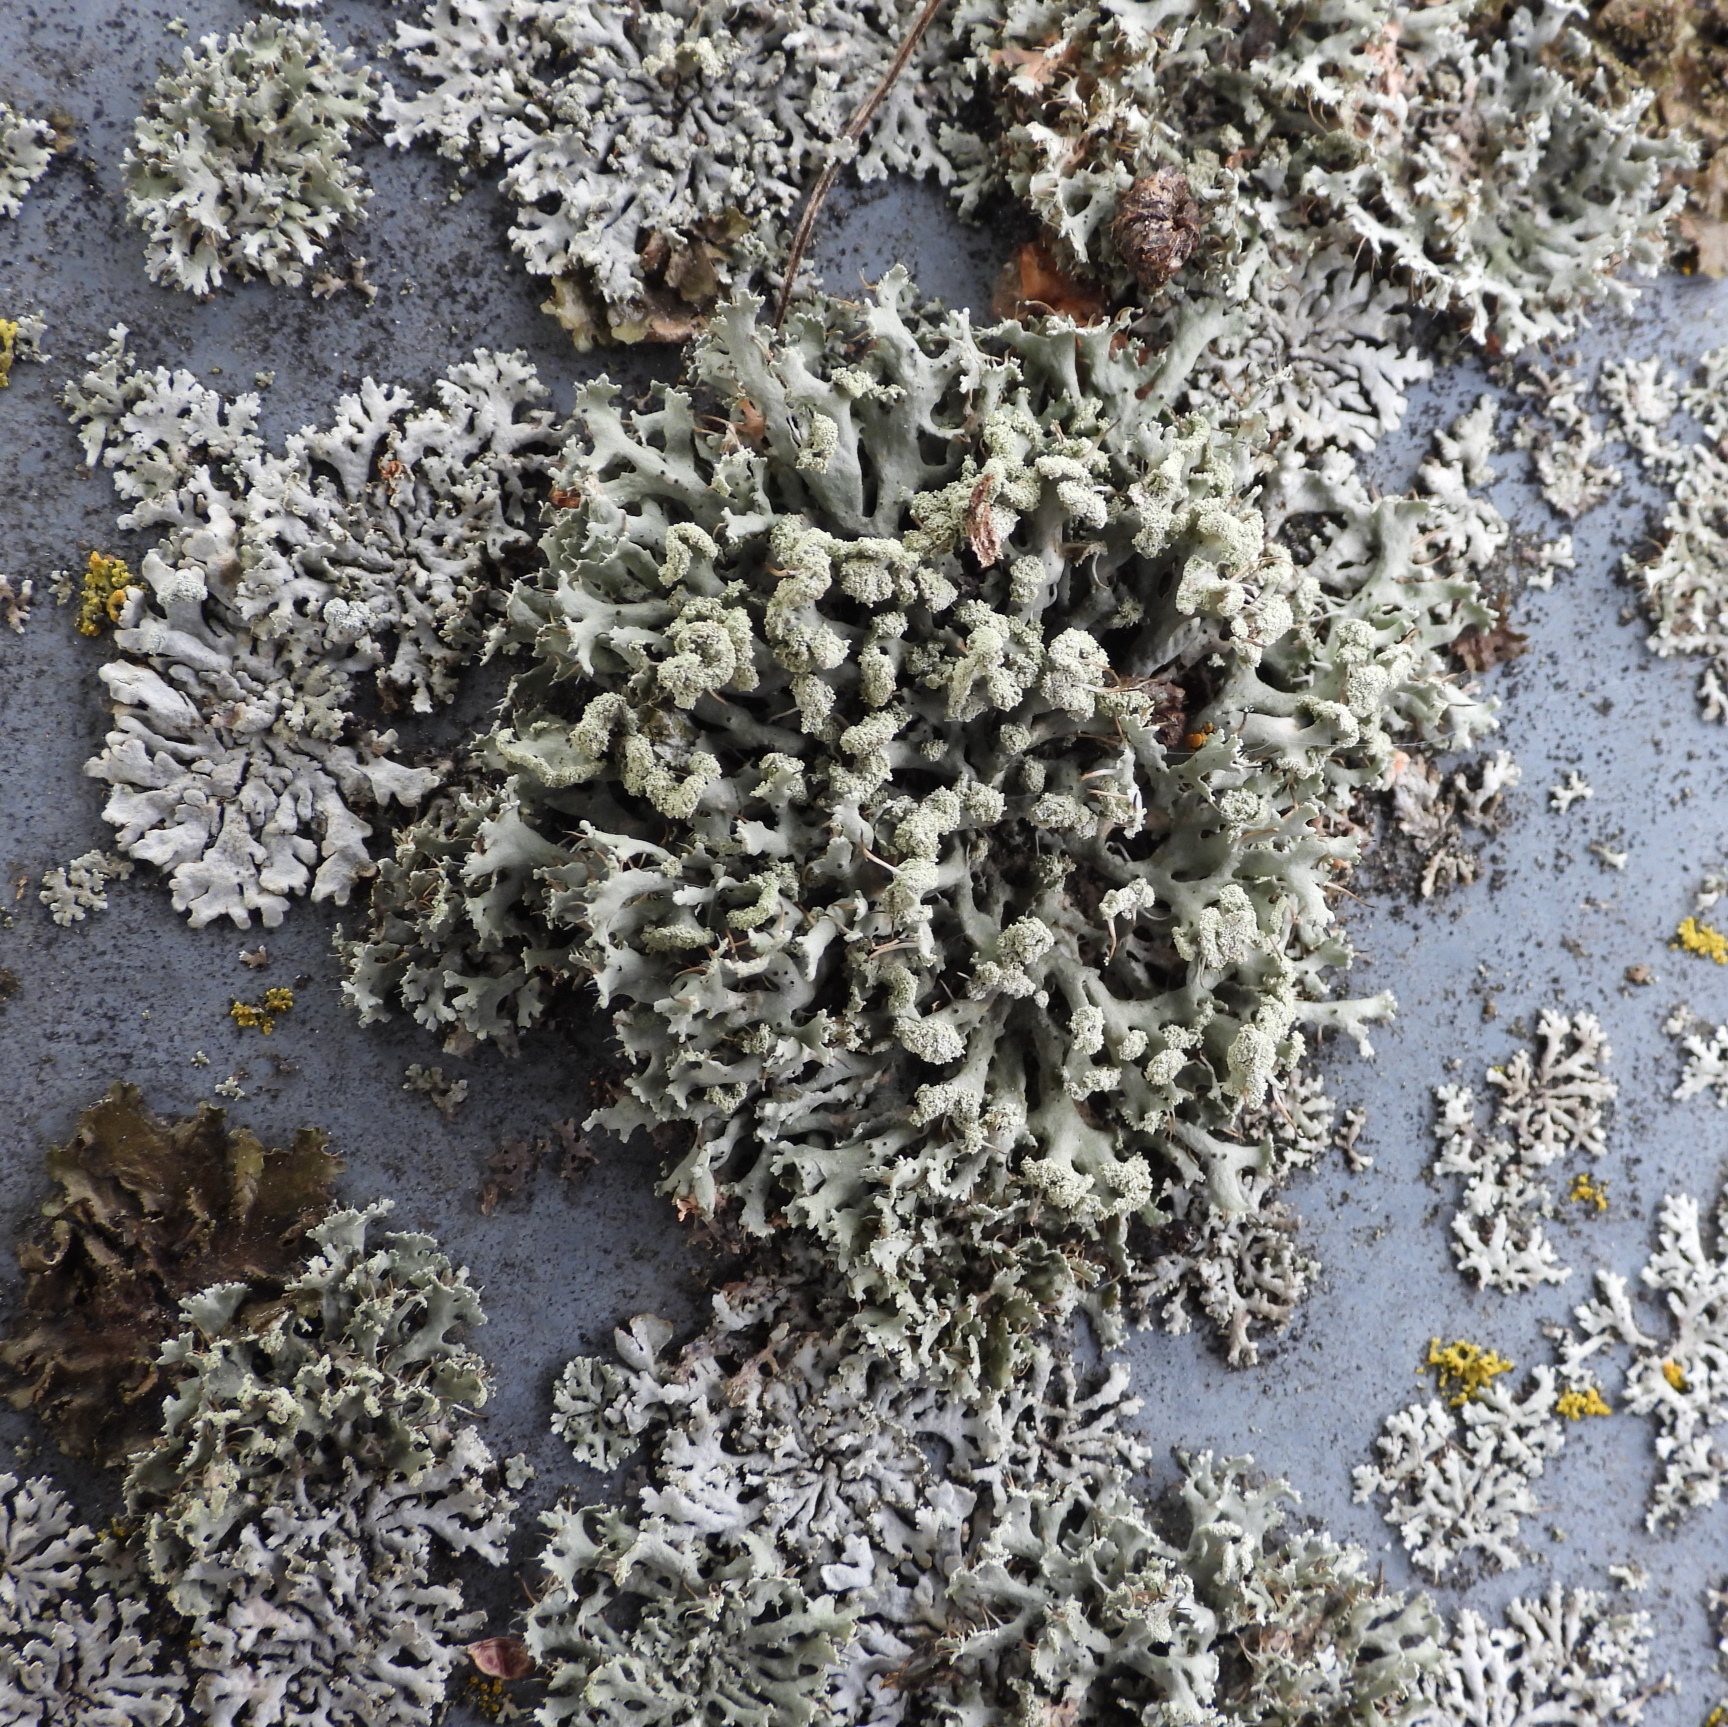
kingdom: Fungi
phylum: Ascomycota
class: Lecanoromycetes
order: Caliciales
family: Physciaceae
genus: Physcia
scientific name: Physcia tenella
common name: Fringed rosette lichen
